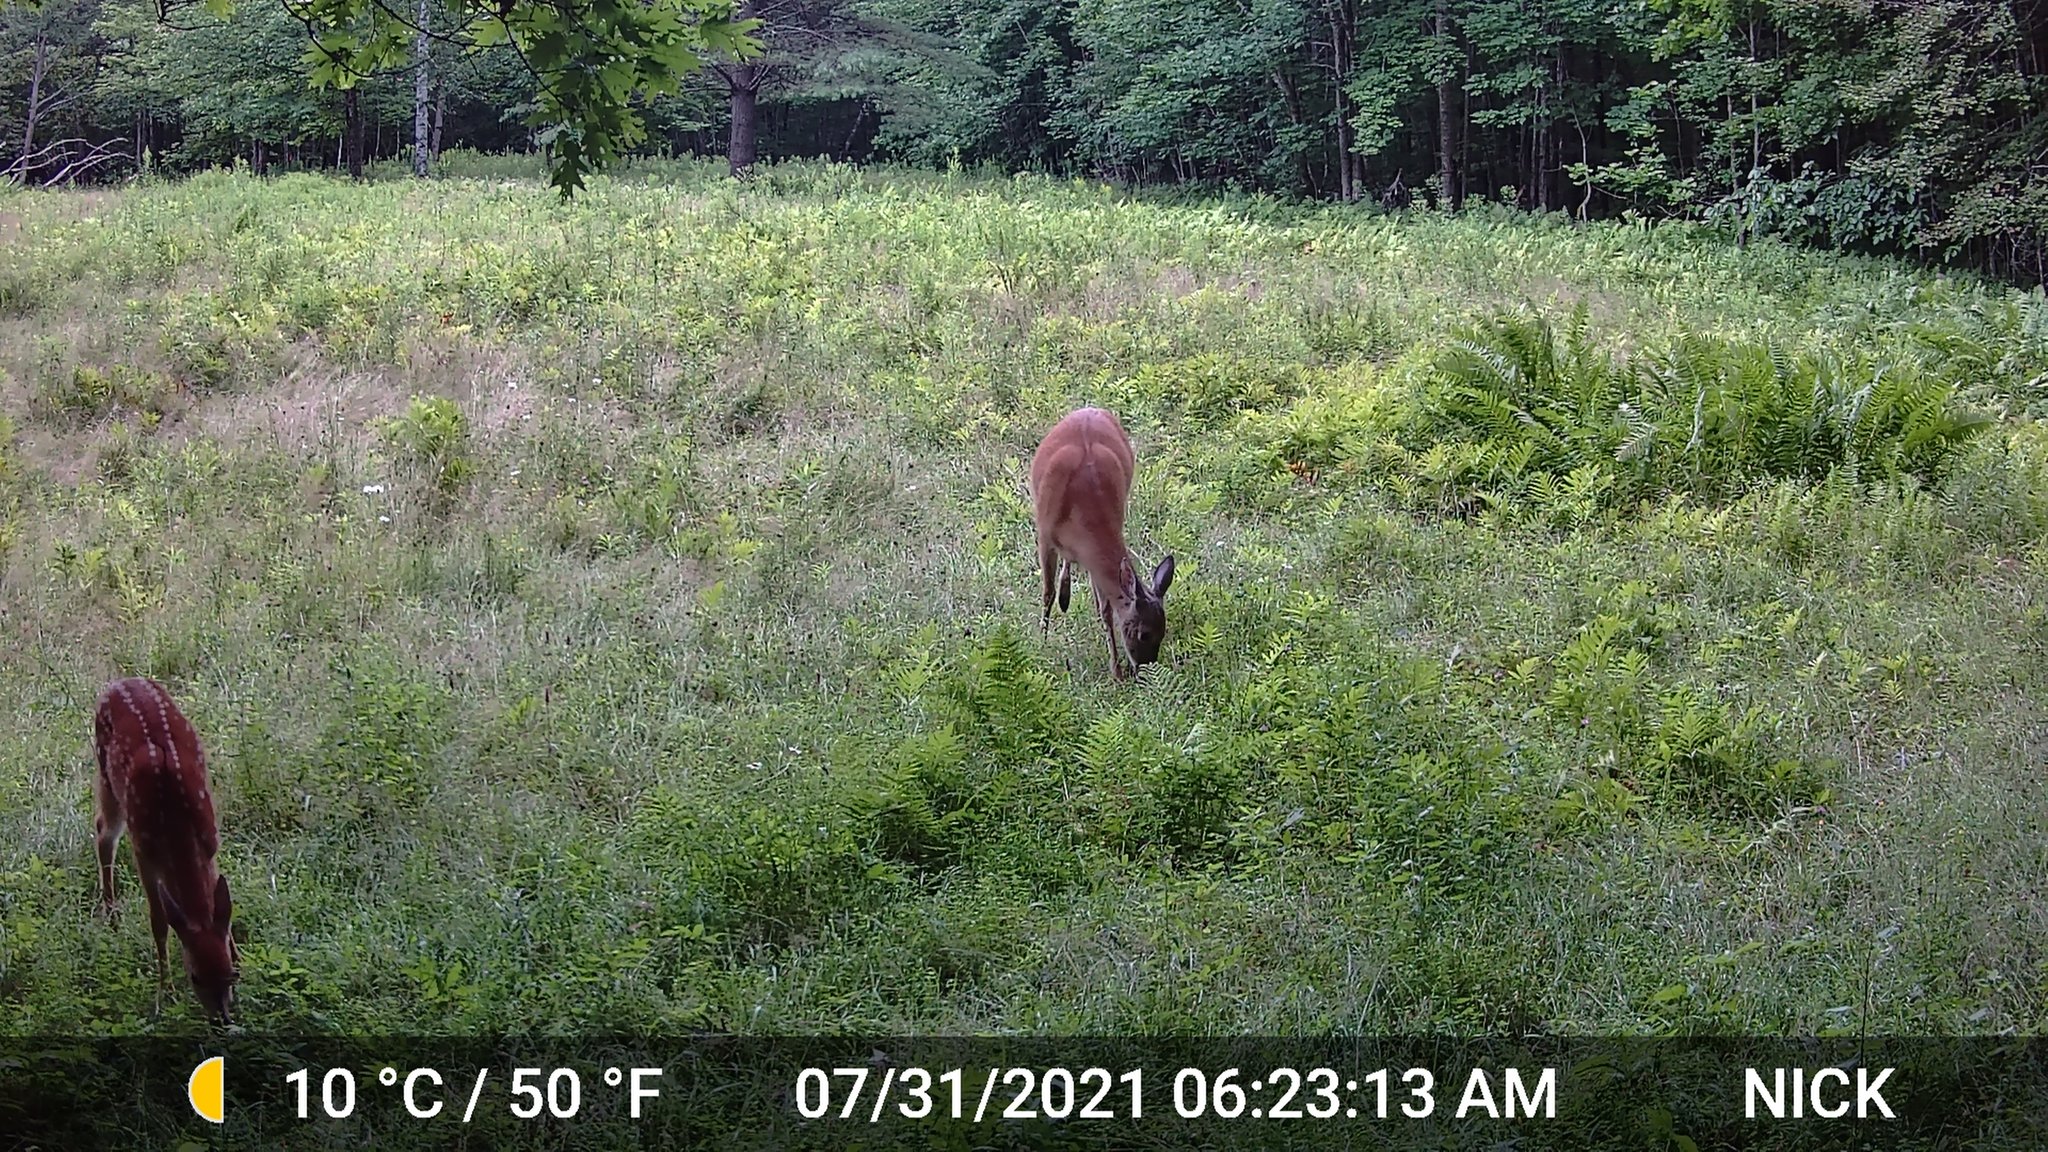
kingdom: Animalia
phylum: Chordata
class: Mammalia
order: Artiodactyla
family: Cervidae
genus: Odocoileus
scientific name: Odocoileus virginianus
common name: White-tailed deer
